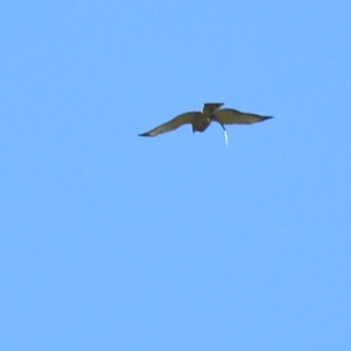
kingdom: Animalia
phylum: Chordata
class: Aves
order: Accipitriformes
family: Accipitridae
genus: Buteo
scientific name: Buteo platypterus
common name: Broad-winged hawk
